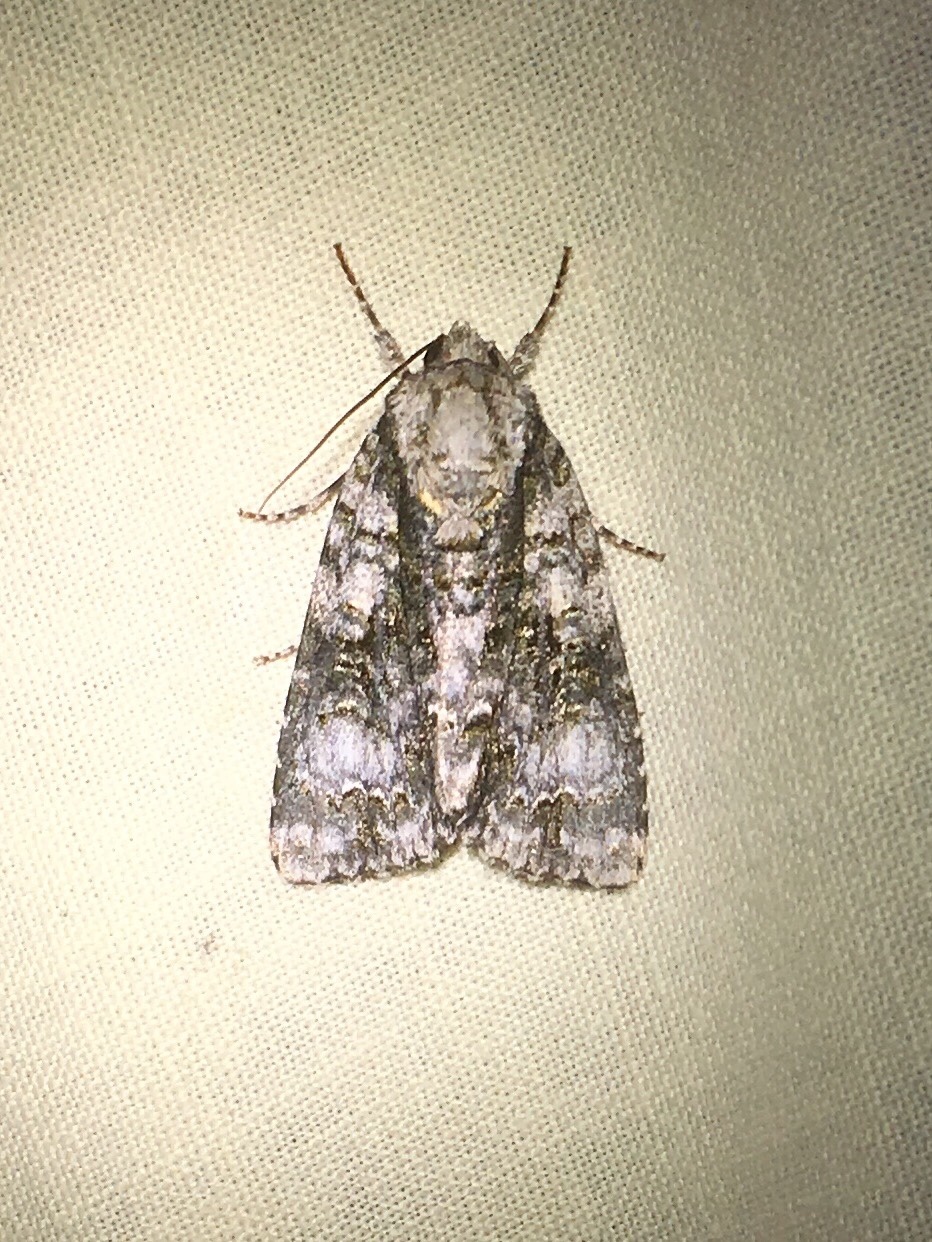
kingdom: Animalia
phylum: Arthropoda
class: Insecta
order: Lepidoptera
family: Noctuidae
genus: Acronicta
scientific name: Acronicta superans
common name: Splendid dagger
